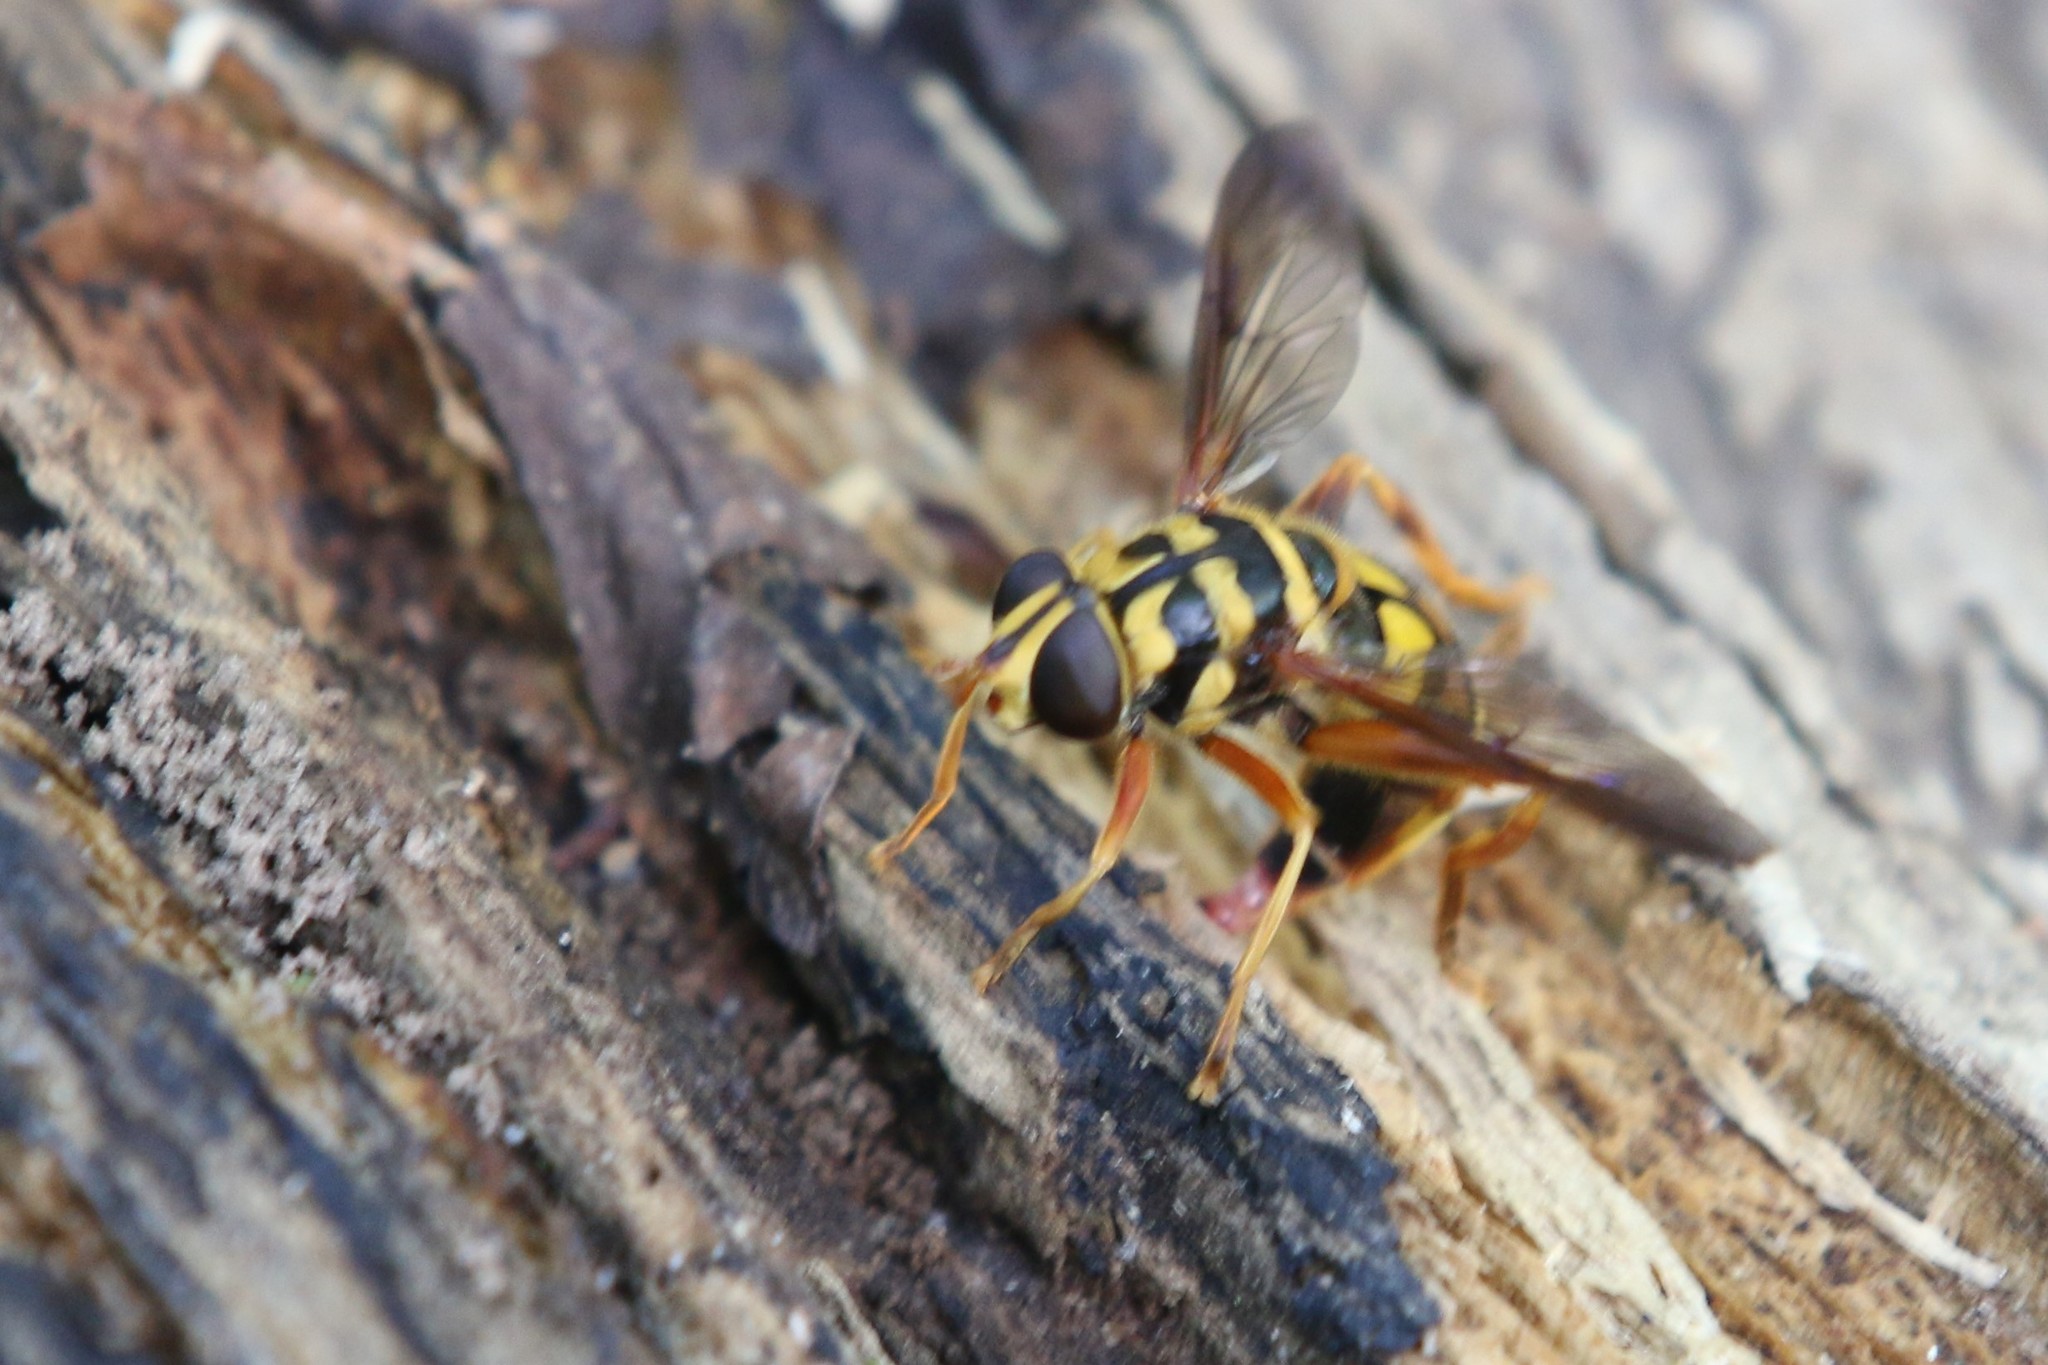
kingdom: Animalia
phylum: Arthropoda
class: Insecta
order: Diptera
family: Syrphidae
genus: Milesia
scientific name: Milesia virginiensis
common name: Virginia giant
